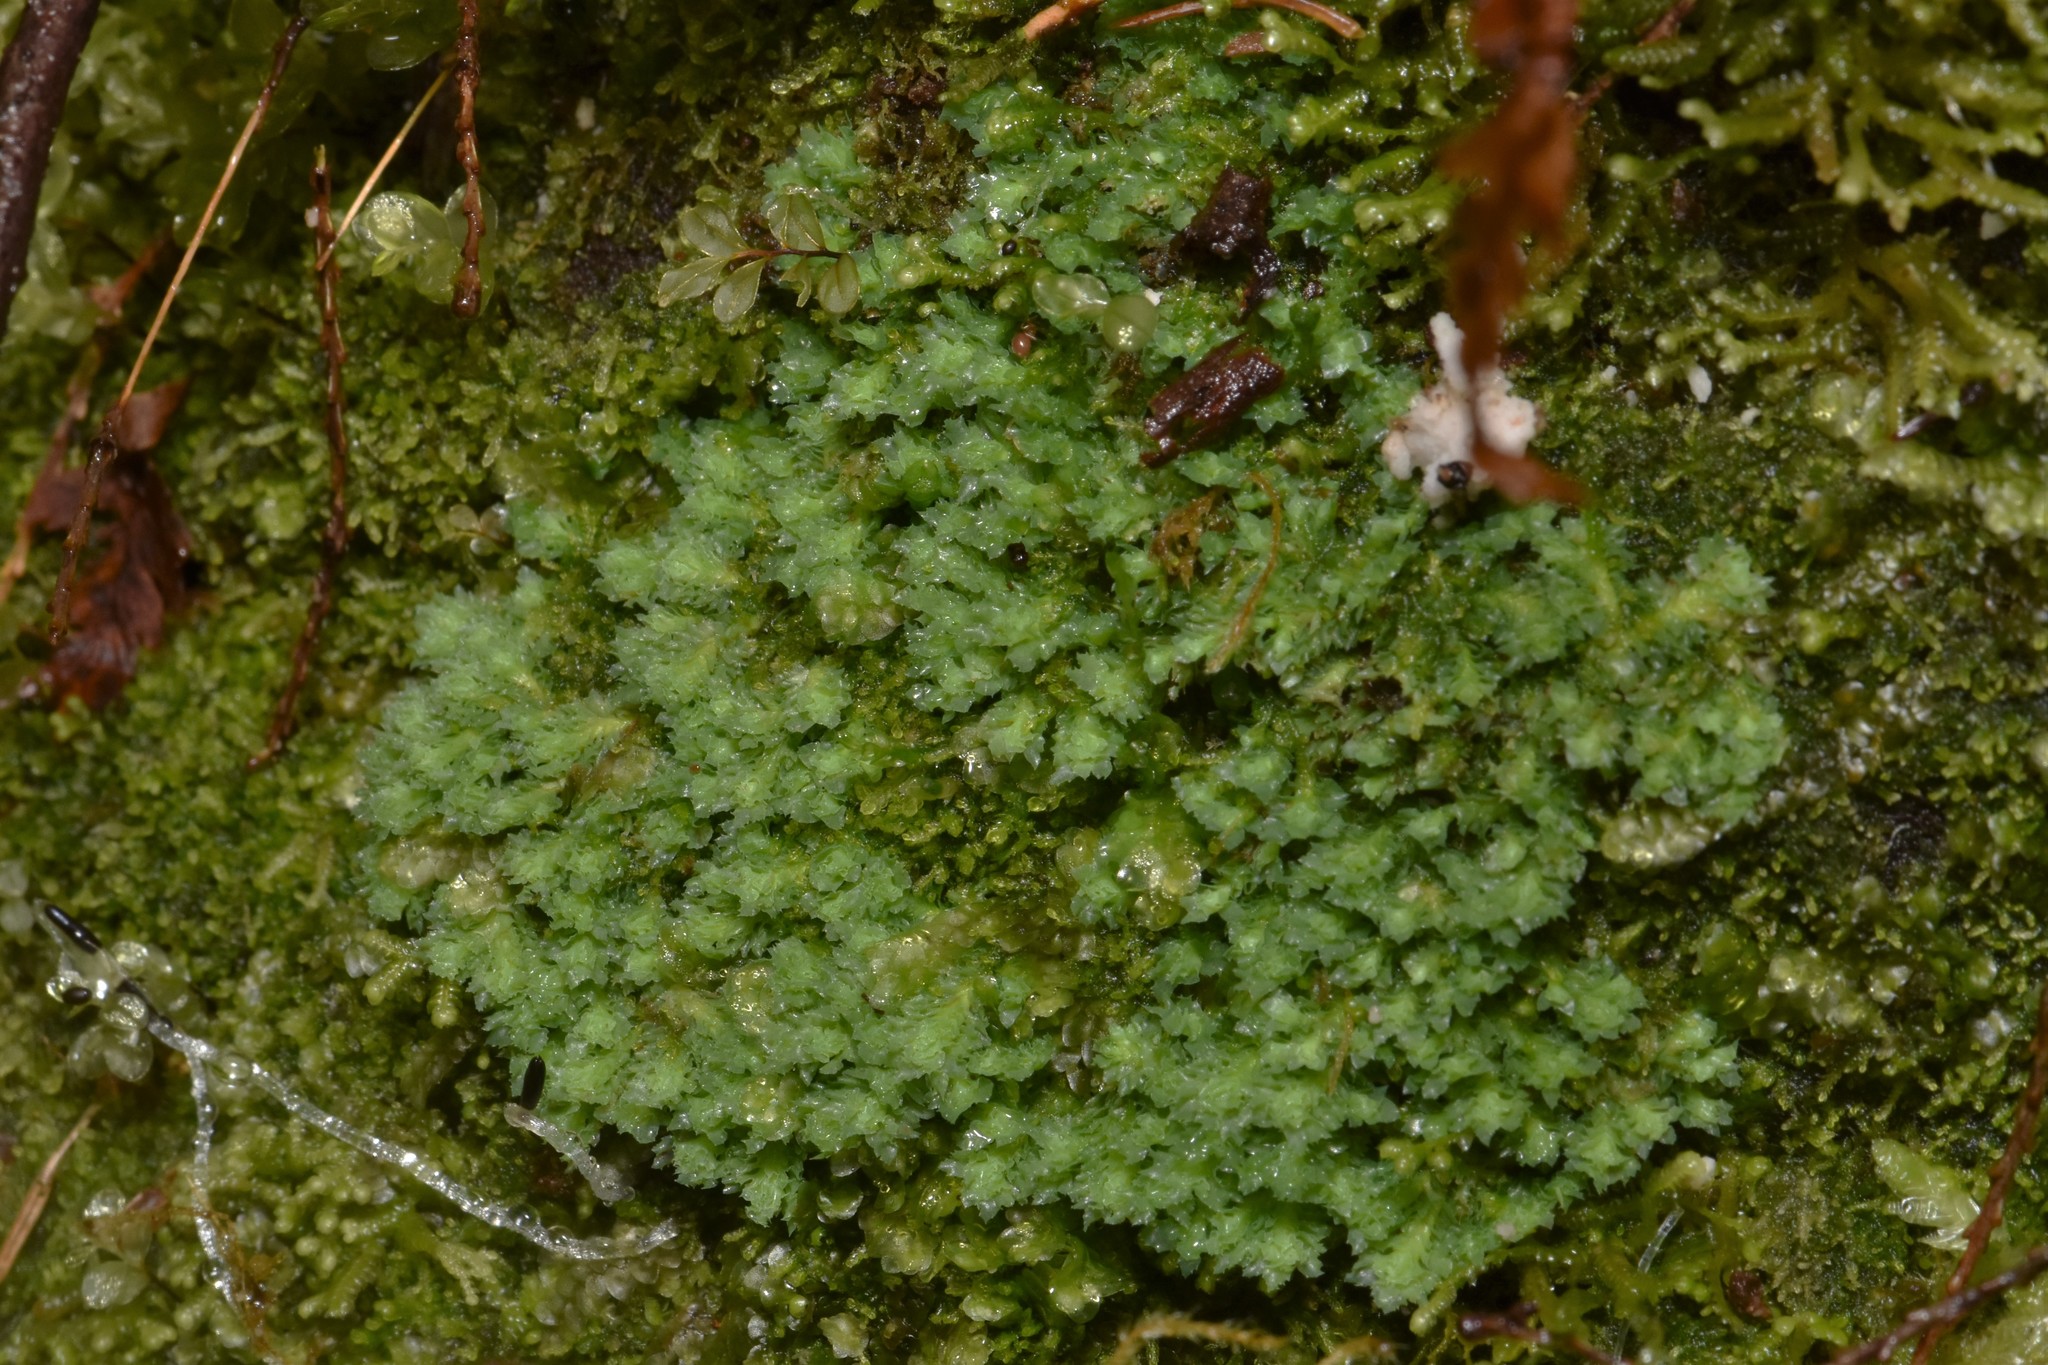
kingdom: Plantae
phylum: Marchantiophyta
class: Jungermanniopsida
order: Jungermanniales
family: Scapaniaceae
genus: Schistochilopsis
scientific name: Schistochilopsis incisa
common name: Jagged notchwort
